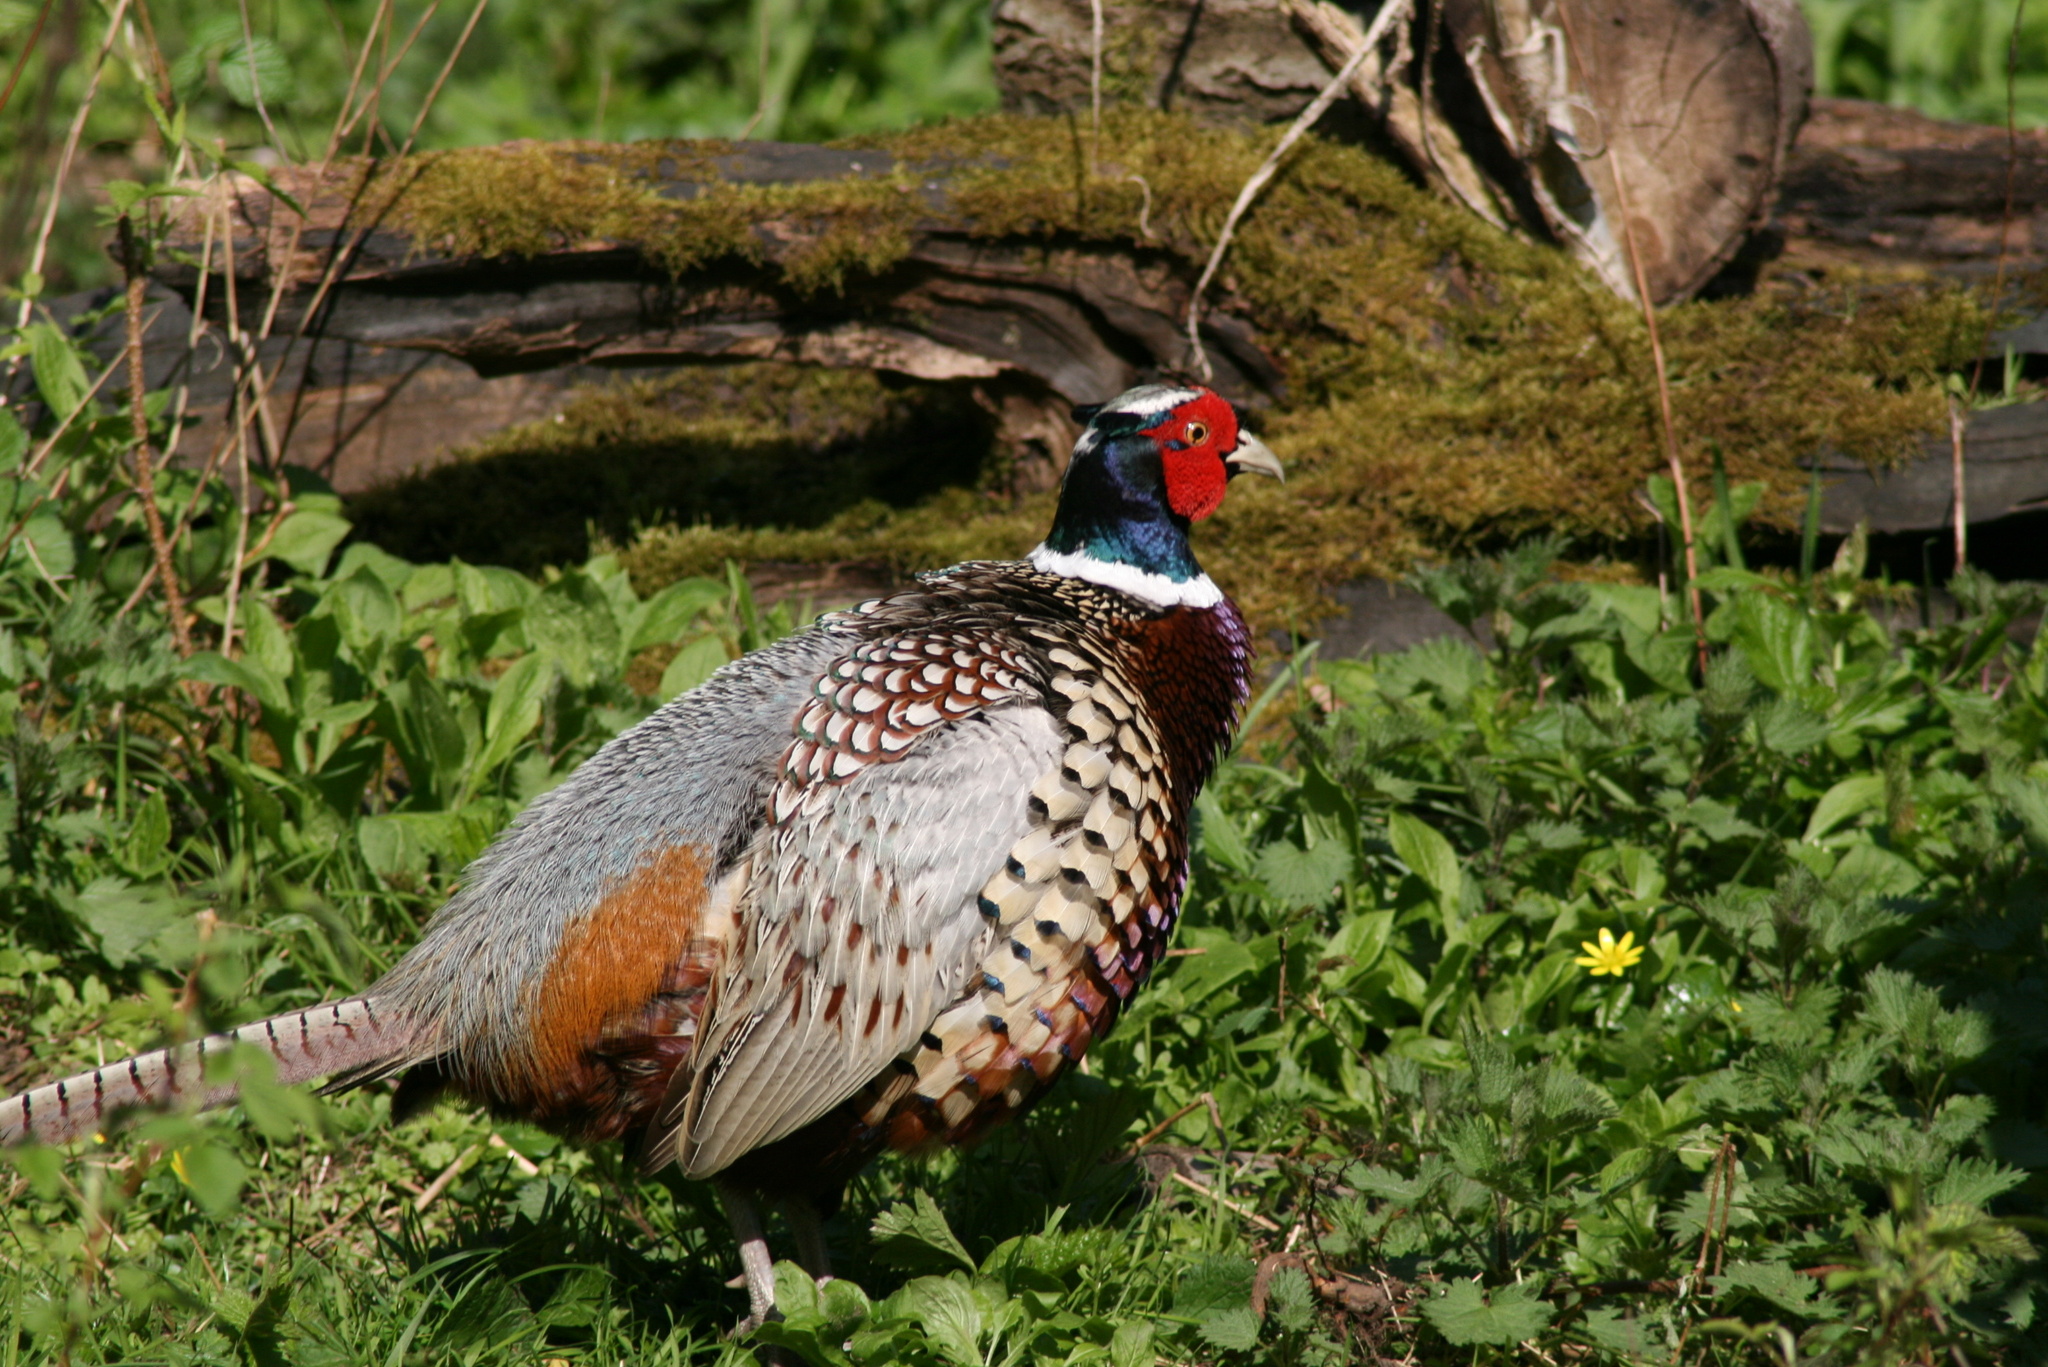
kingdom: Animalia
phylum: Chordata
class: Aves
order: Galliformes
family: Phasianidae
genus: Phasianus
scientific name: Phasianus colchicus
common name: Common pheasant
